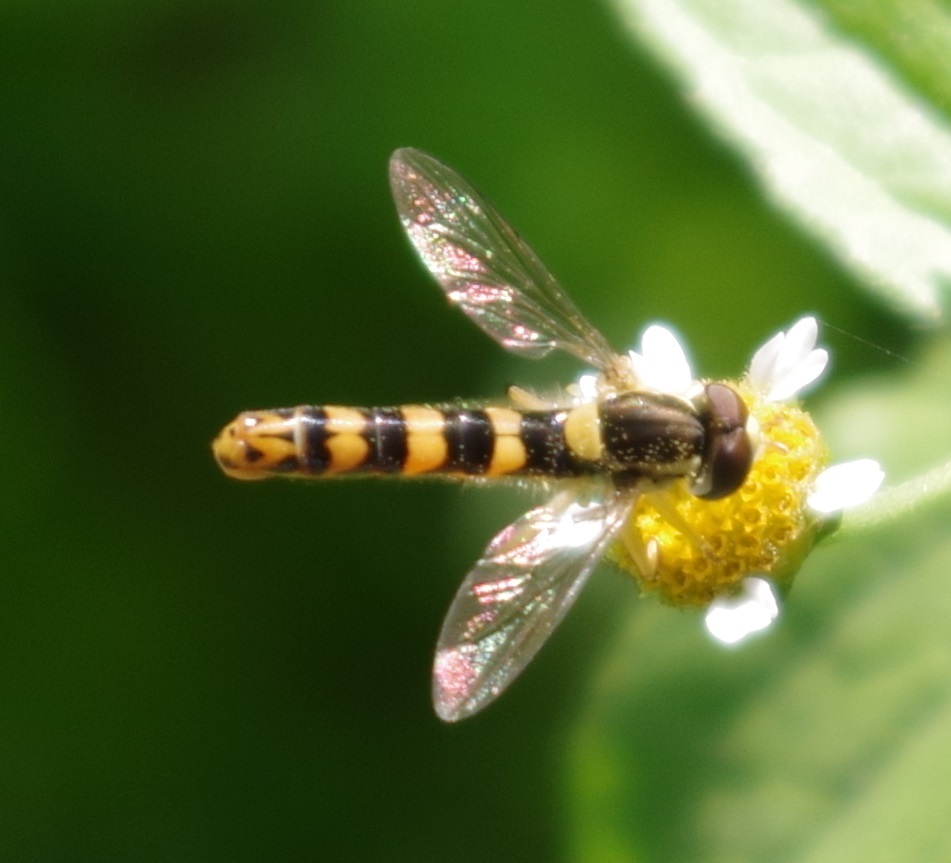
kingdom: Animalia
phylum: Arthropoda
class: Insecta
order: Diptera
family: Syrphidae
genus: Sphaerophoria
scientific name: Sphaerophoria scripta
